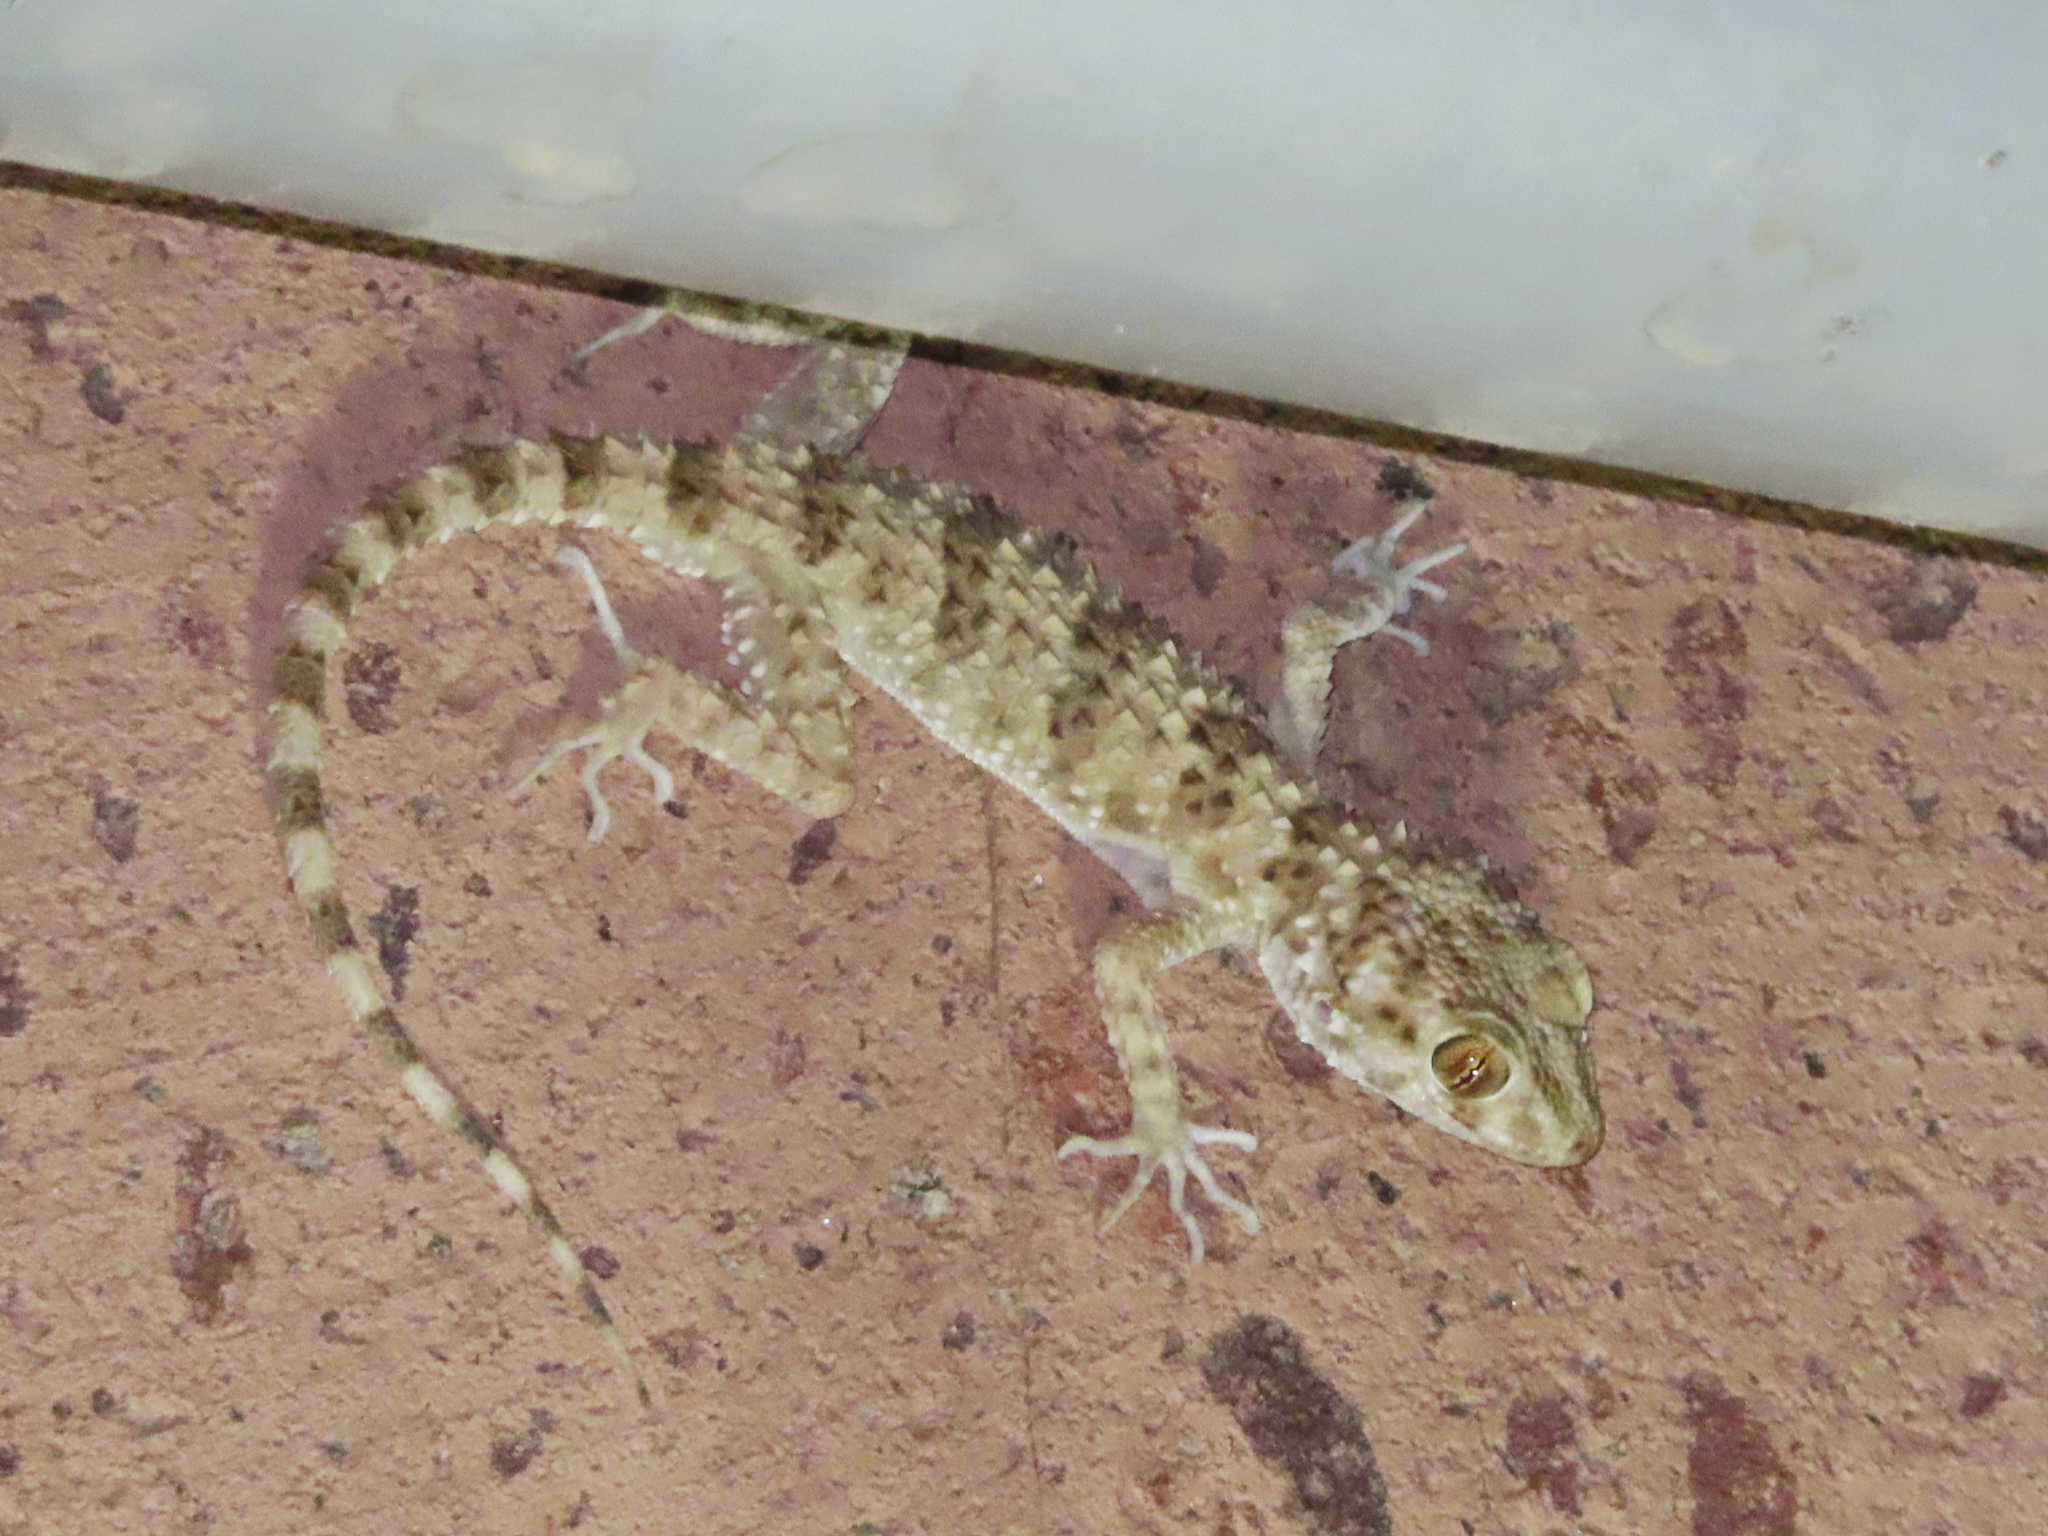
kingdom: Animalia
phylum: Chordata
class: Squamata
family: Gekkonidae
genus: Tenuidactylus
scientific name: Tenuidactylus caspius
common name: Caspian bent-toed gecko
